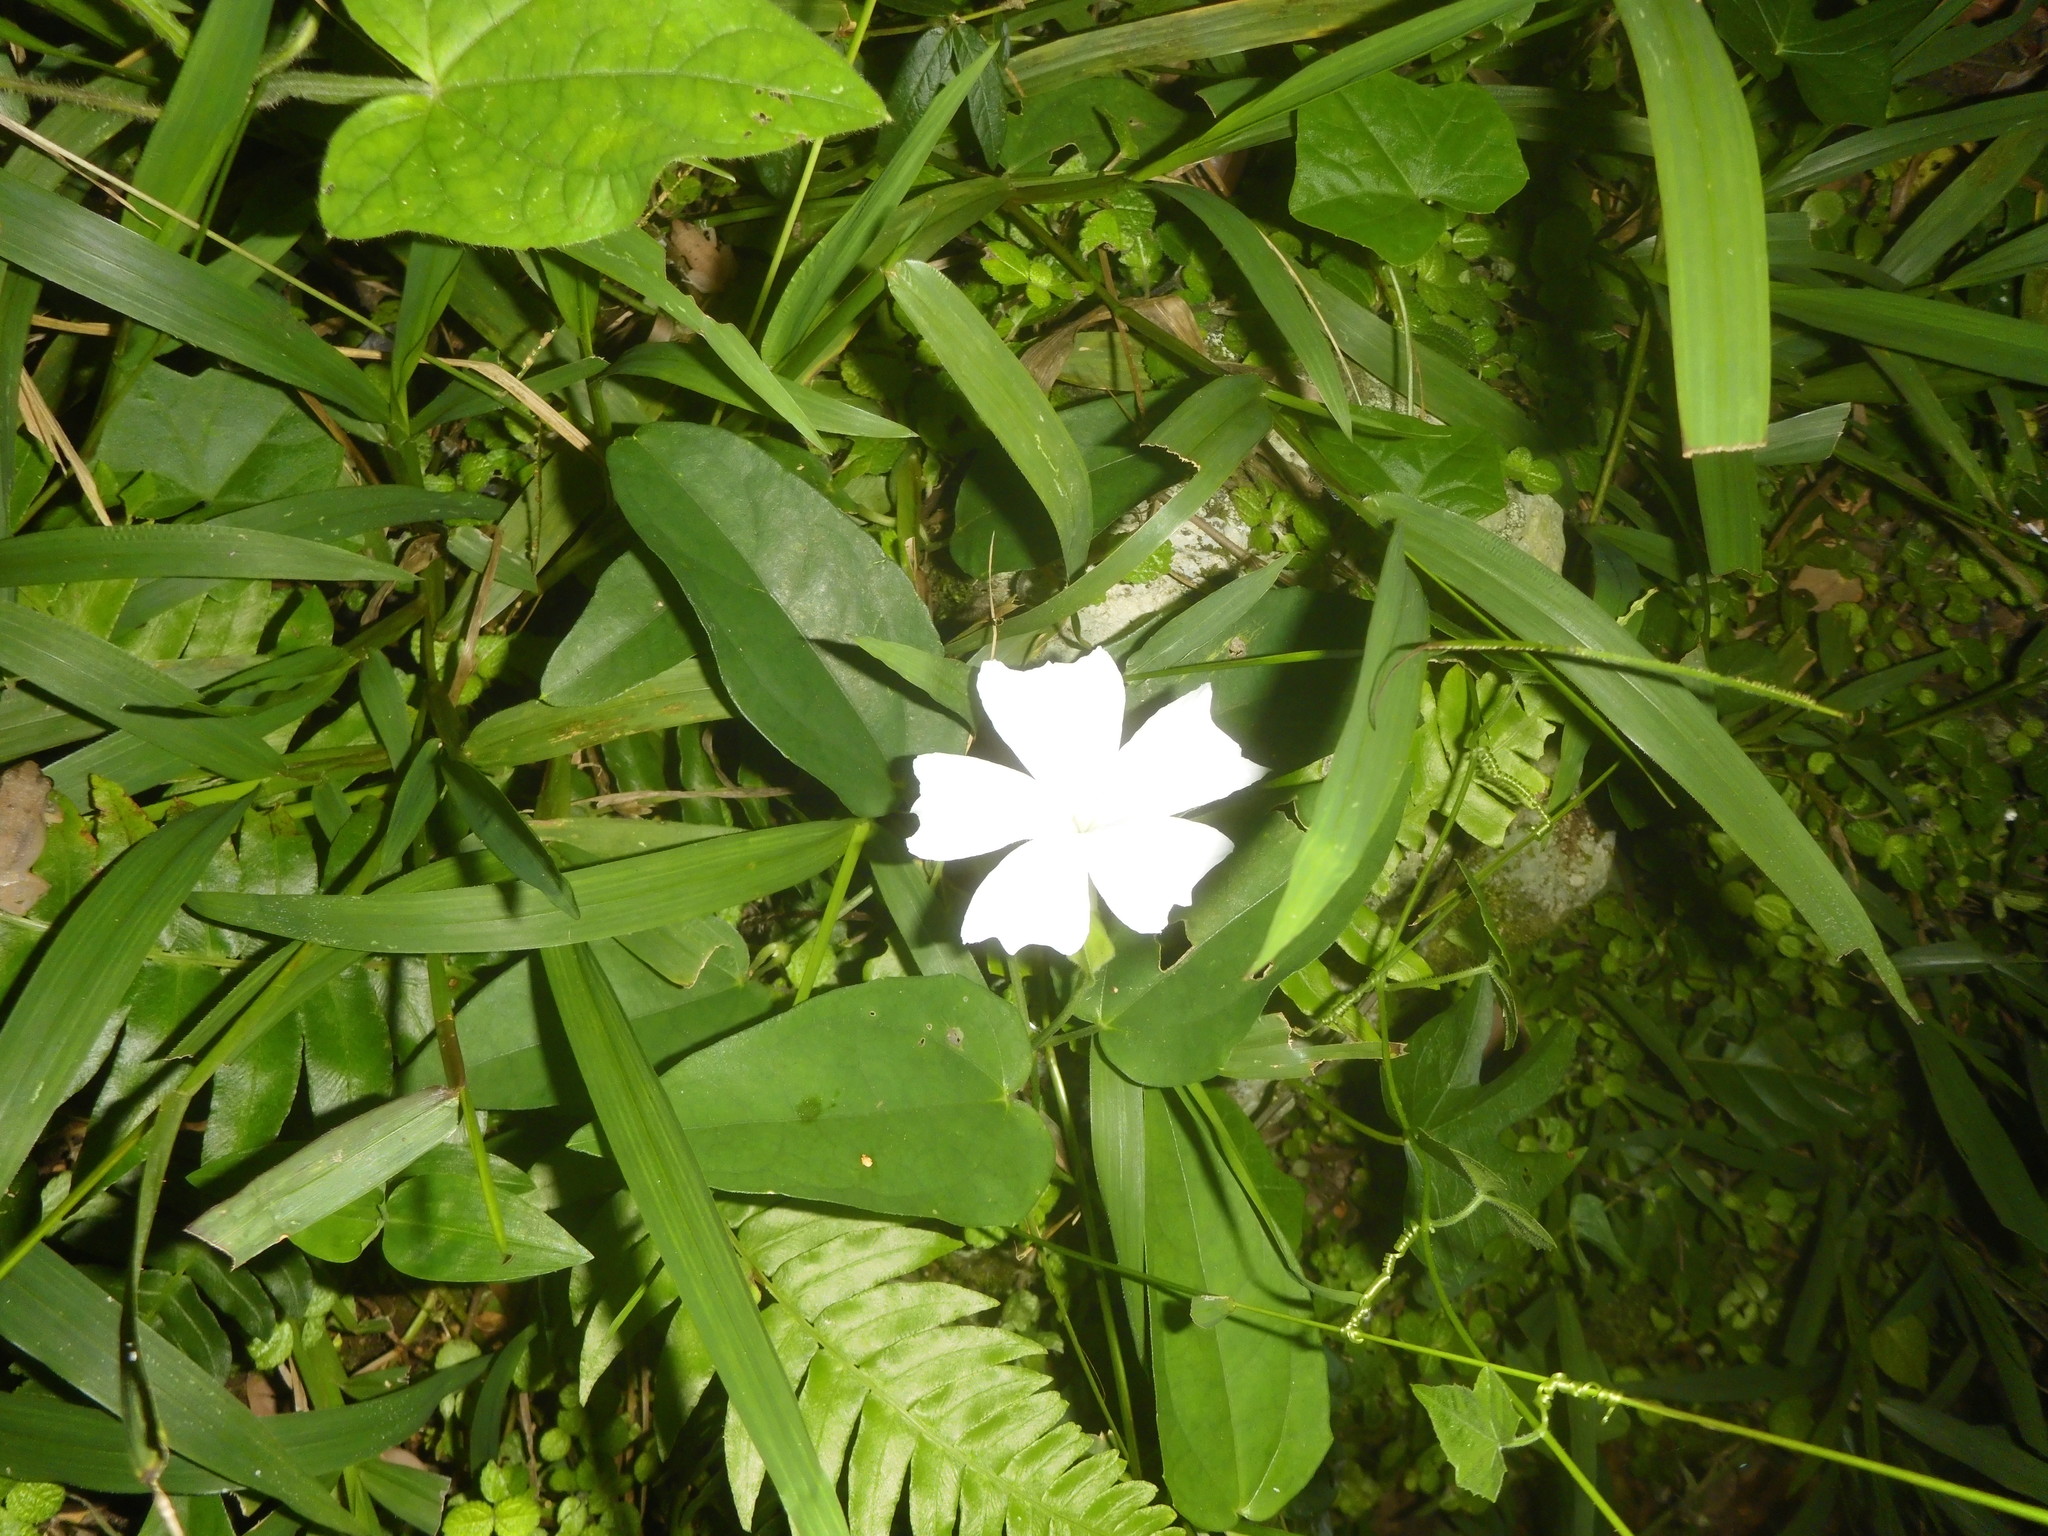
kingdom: Plantae
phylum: Tracheophyta
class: Magnoliopsida
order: Lamiales
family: Acanthaceae
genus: Thunbergia
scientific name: Thunbergia fragrans
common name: Whitelady
